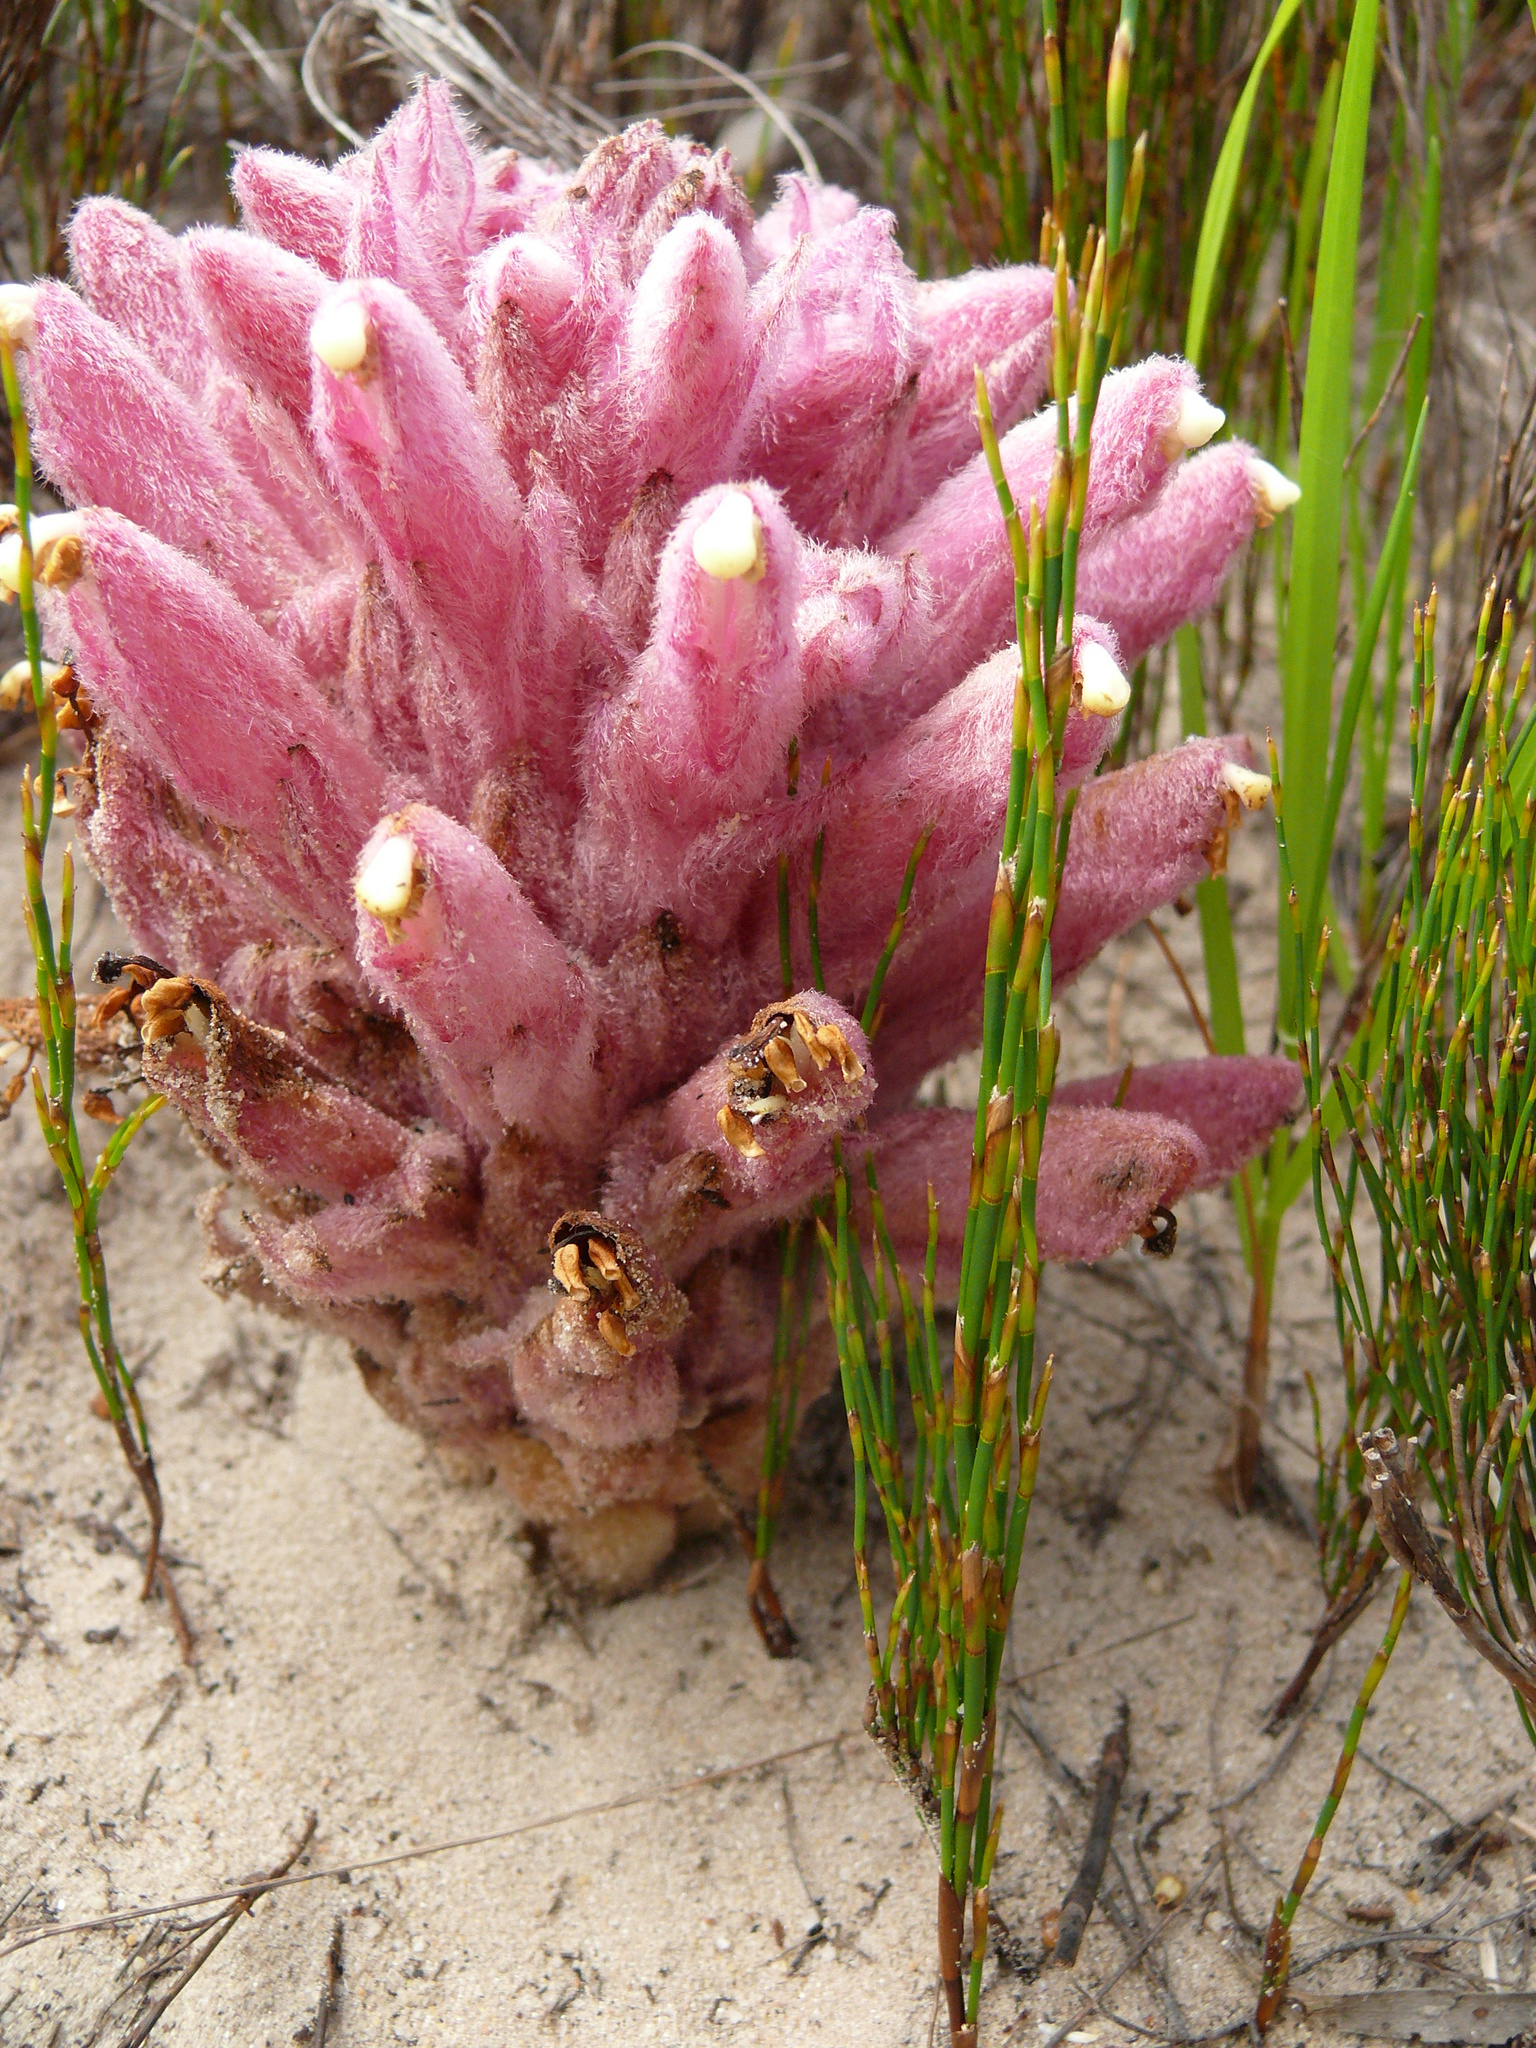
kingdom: Plantae
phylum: Tracheophyta
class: Magnoliopsida
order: Lamiales
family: Orobanchaceae
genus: Hyobanche
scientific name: Hyobanche thinophila
